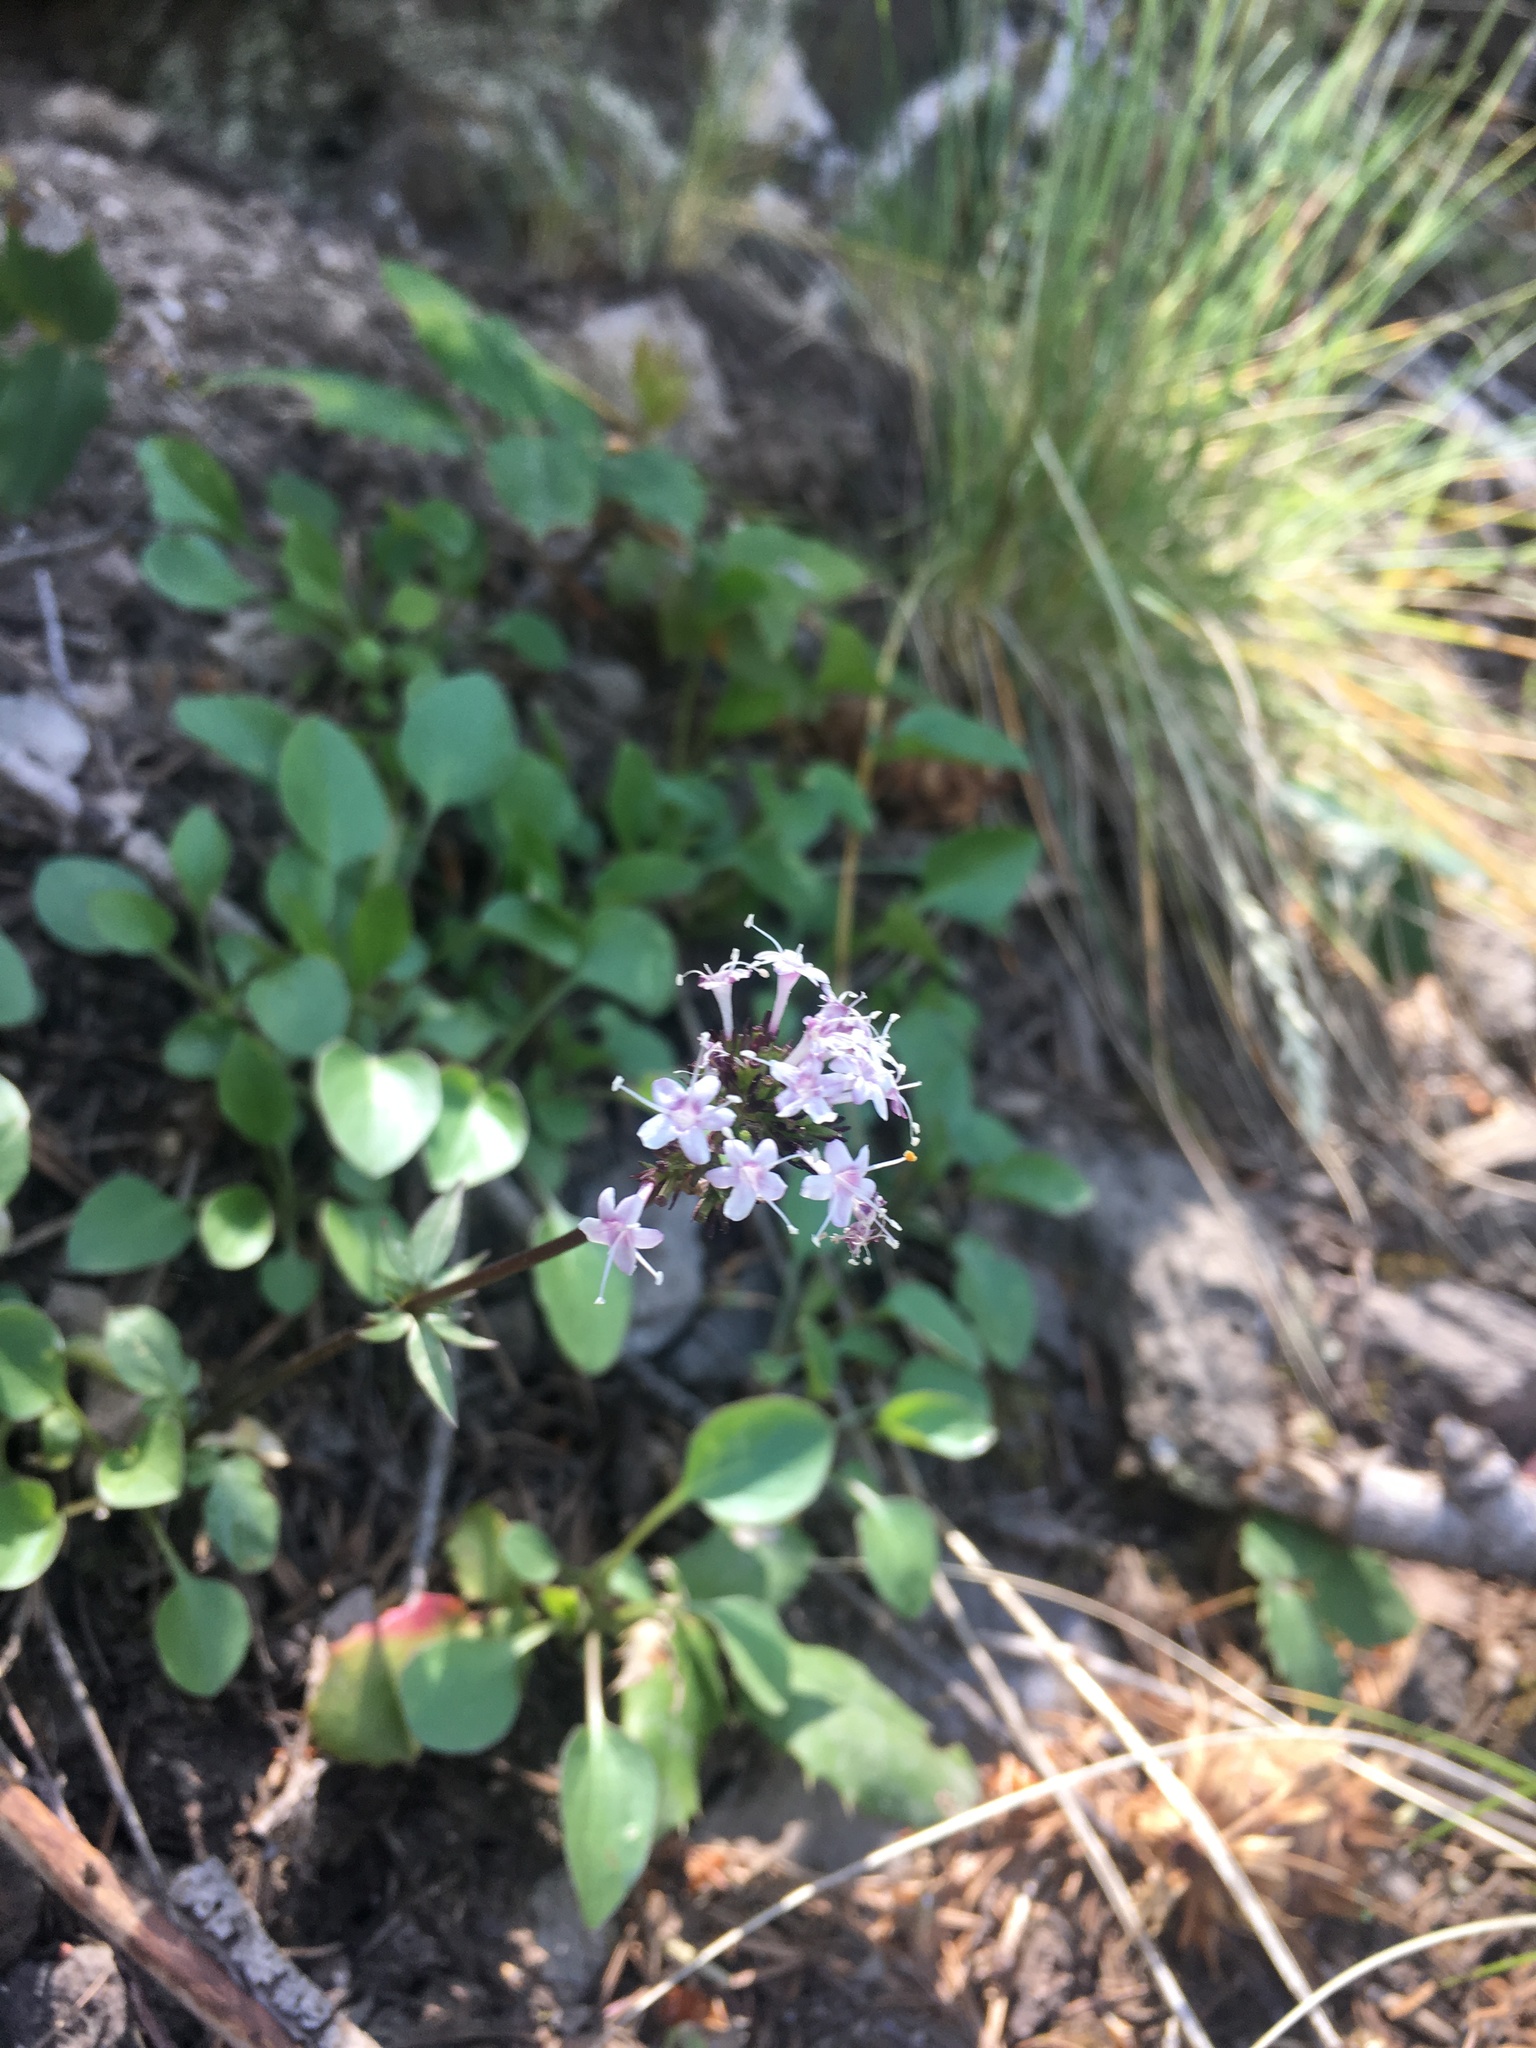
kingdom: Plantae
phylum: Tracheophyta
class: Magnoliopsida
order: Dipsacales
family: Caprifoliaceae
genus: Valeriana
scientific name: Valeriana arizonica
